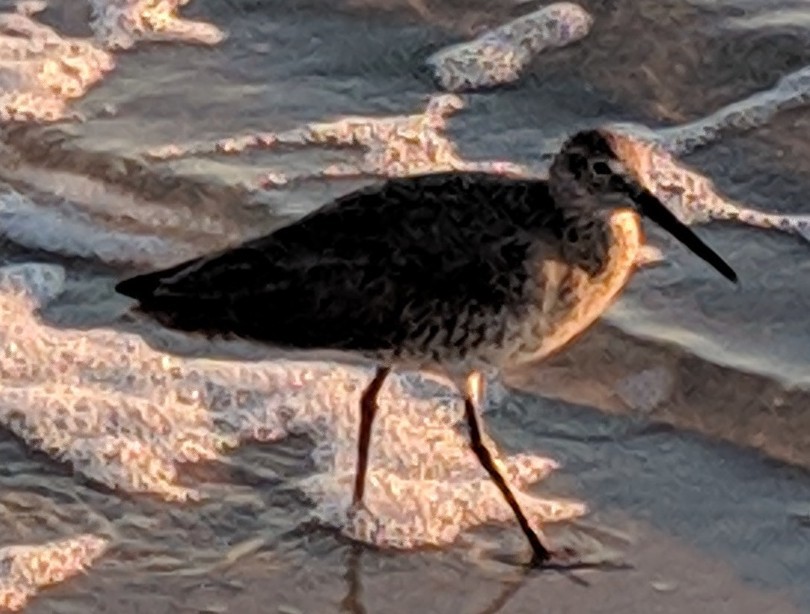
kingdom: Animalia
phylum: Chordata
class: Aves
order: Charadriiformes
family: Scolopacidae
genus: Tringa
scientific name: Tringa semipalmata
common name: Willet
